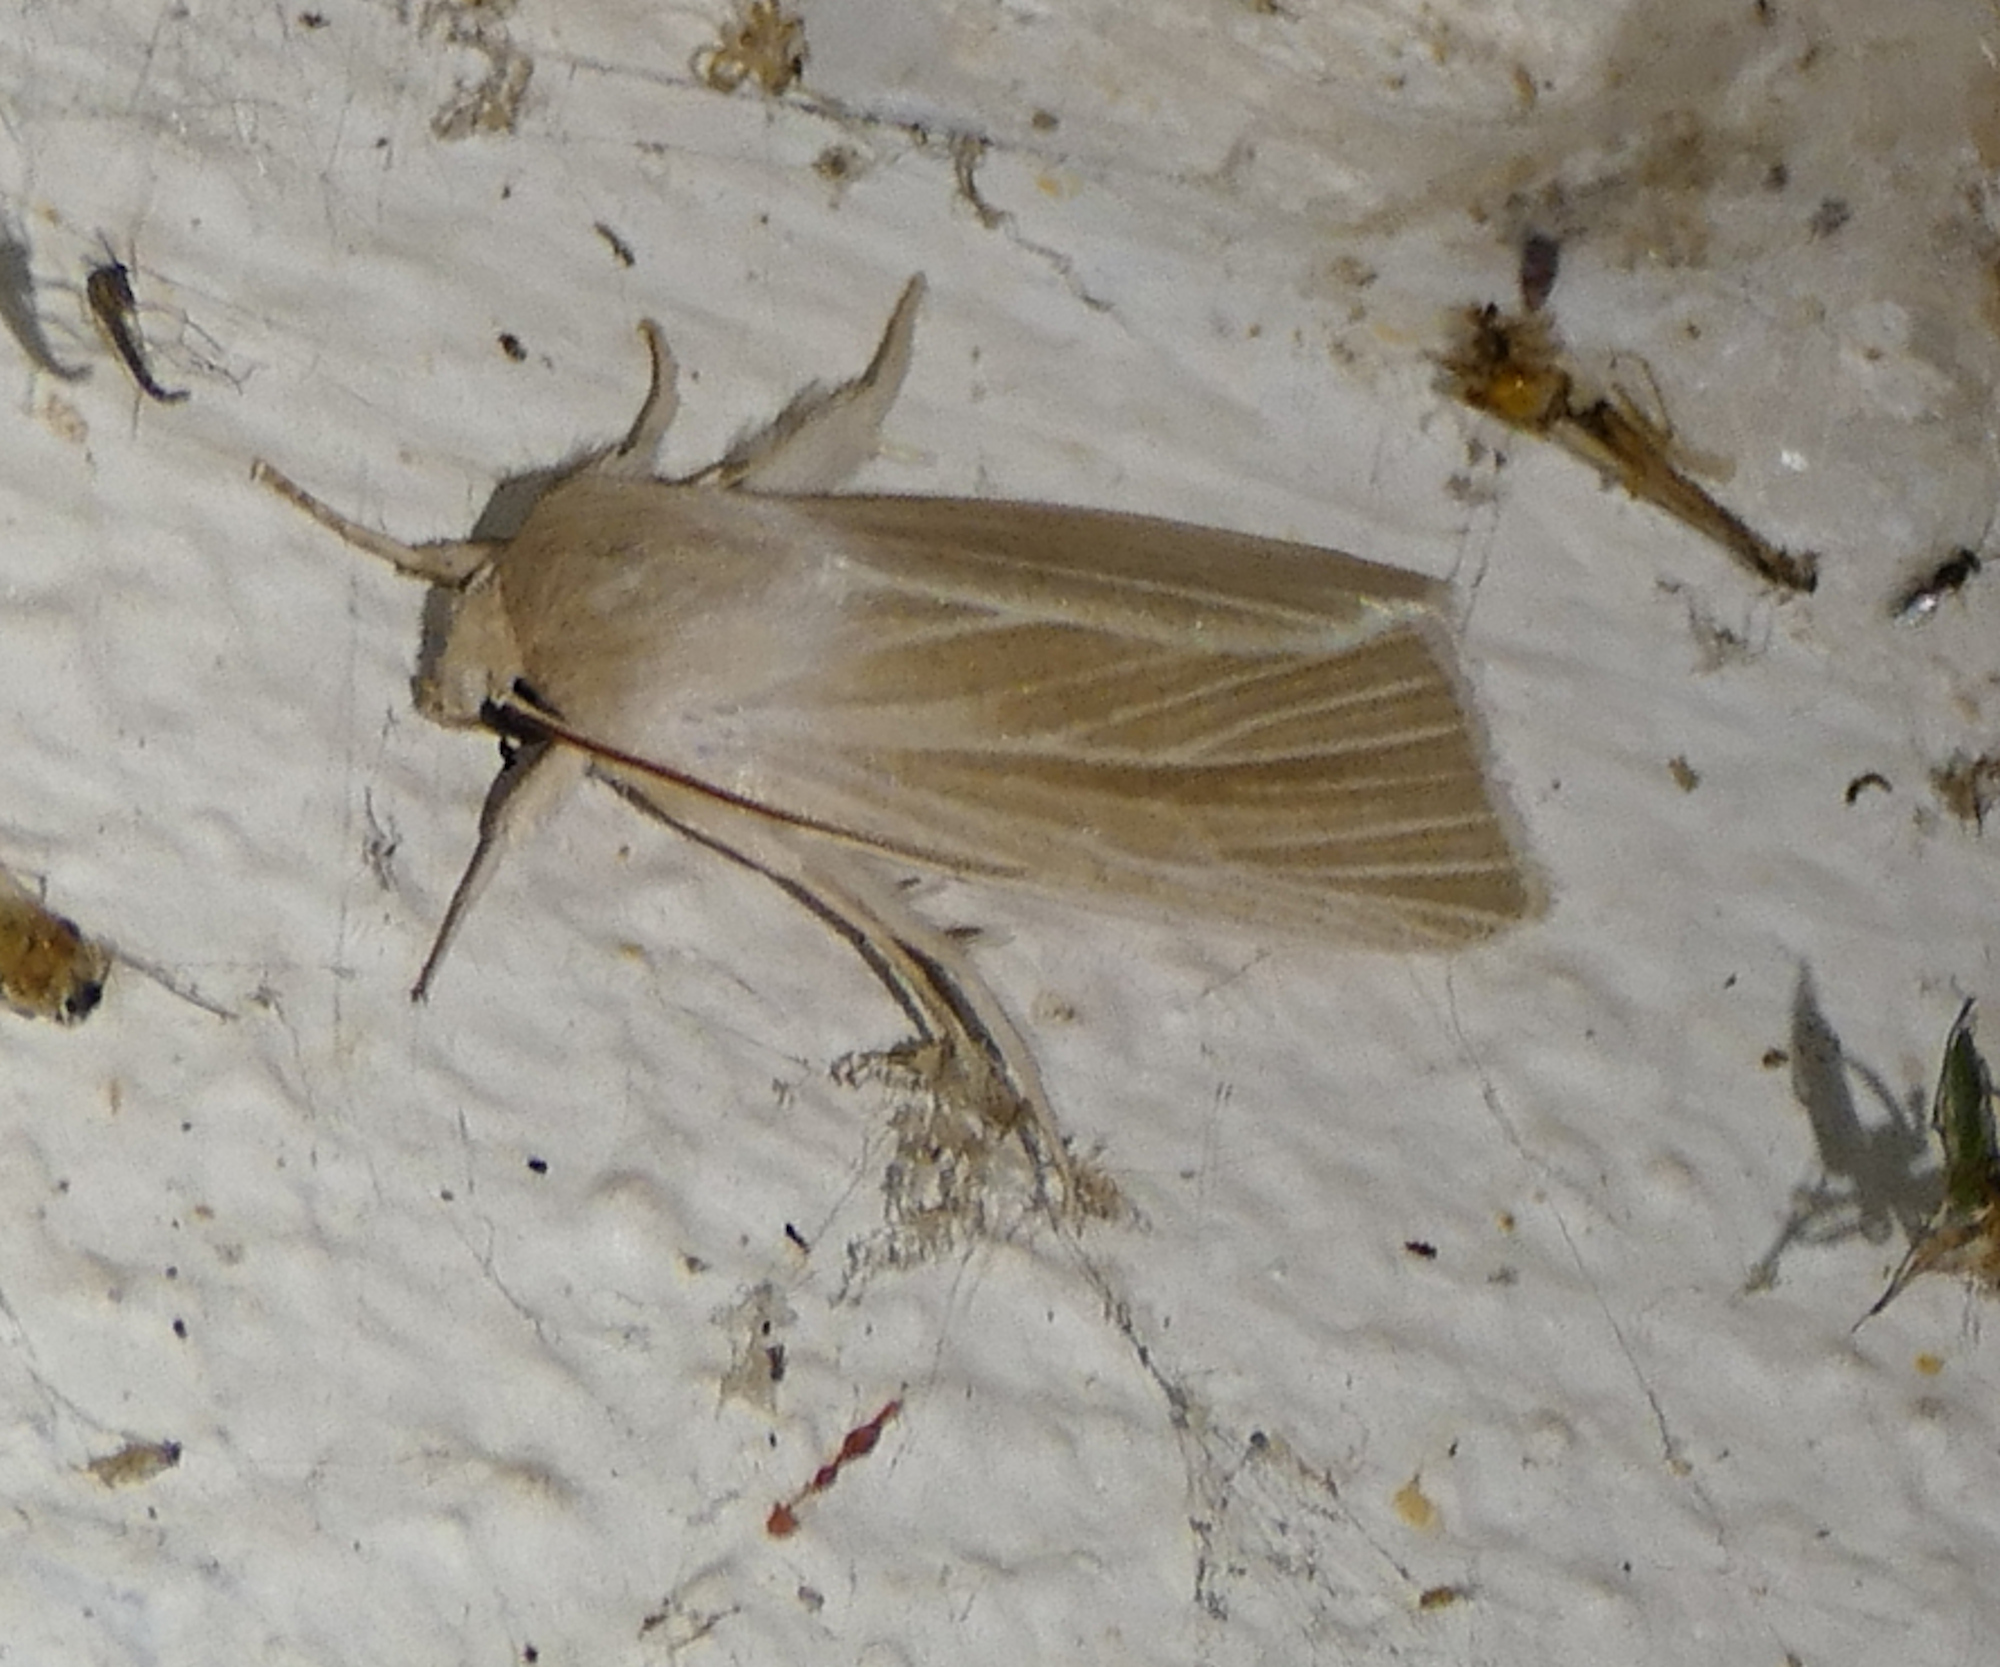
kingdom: Animalia
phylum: Arthropoda
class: Insecta
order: Lepidoptera
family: Noctuidae
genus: Acronicta
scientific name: Acronicta insularis
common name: Henry's marsh moth
